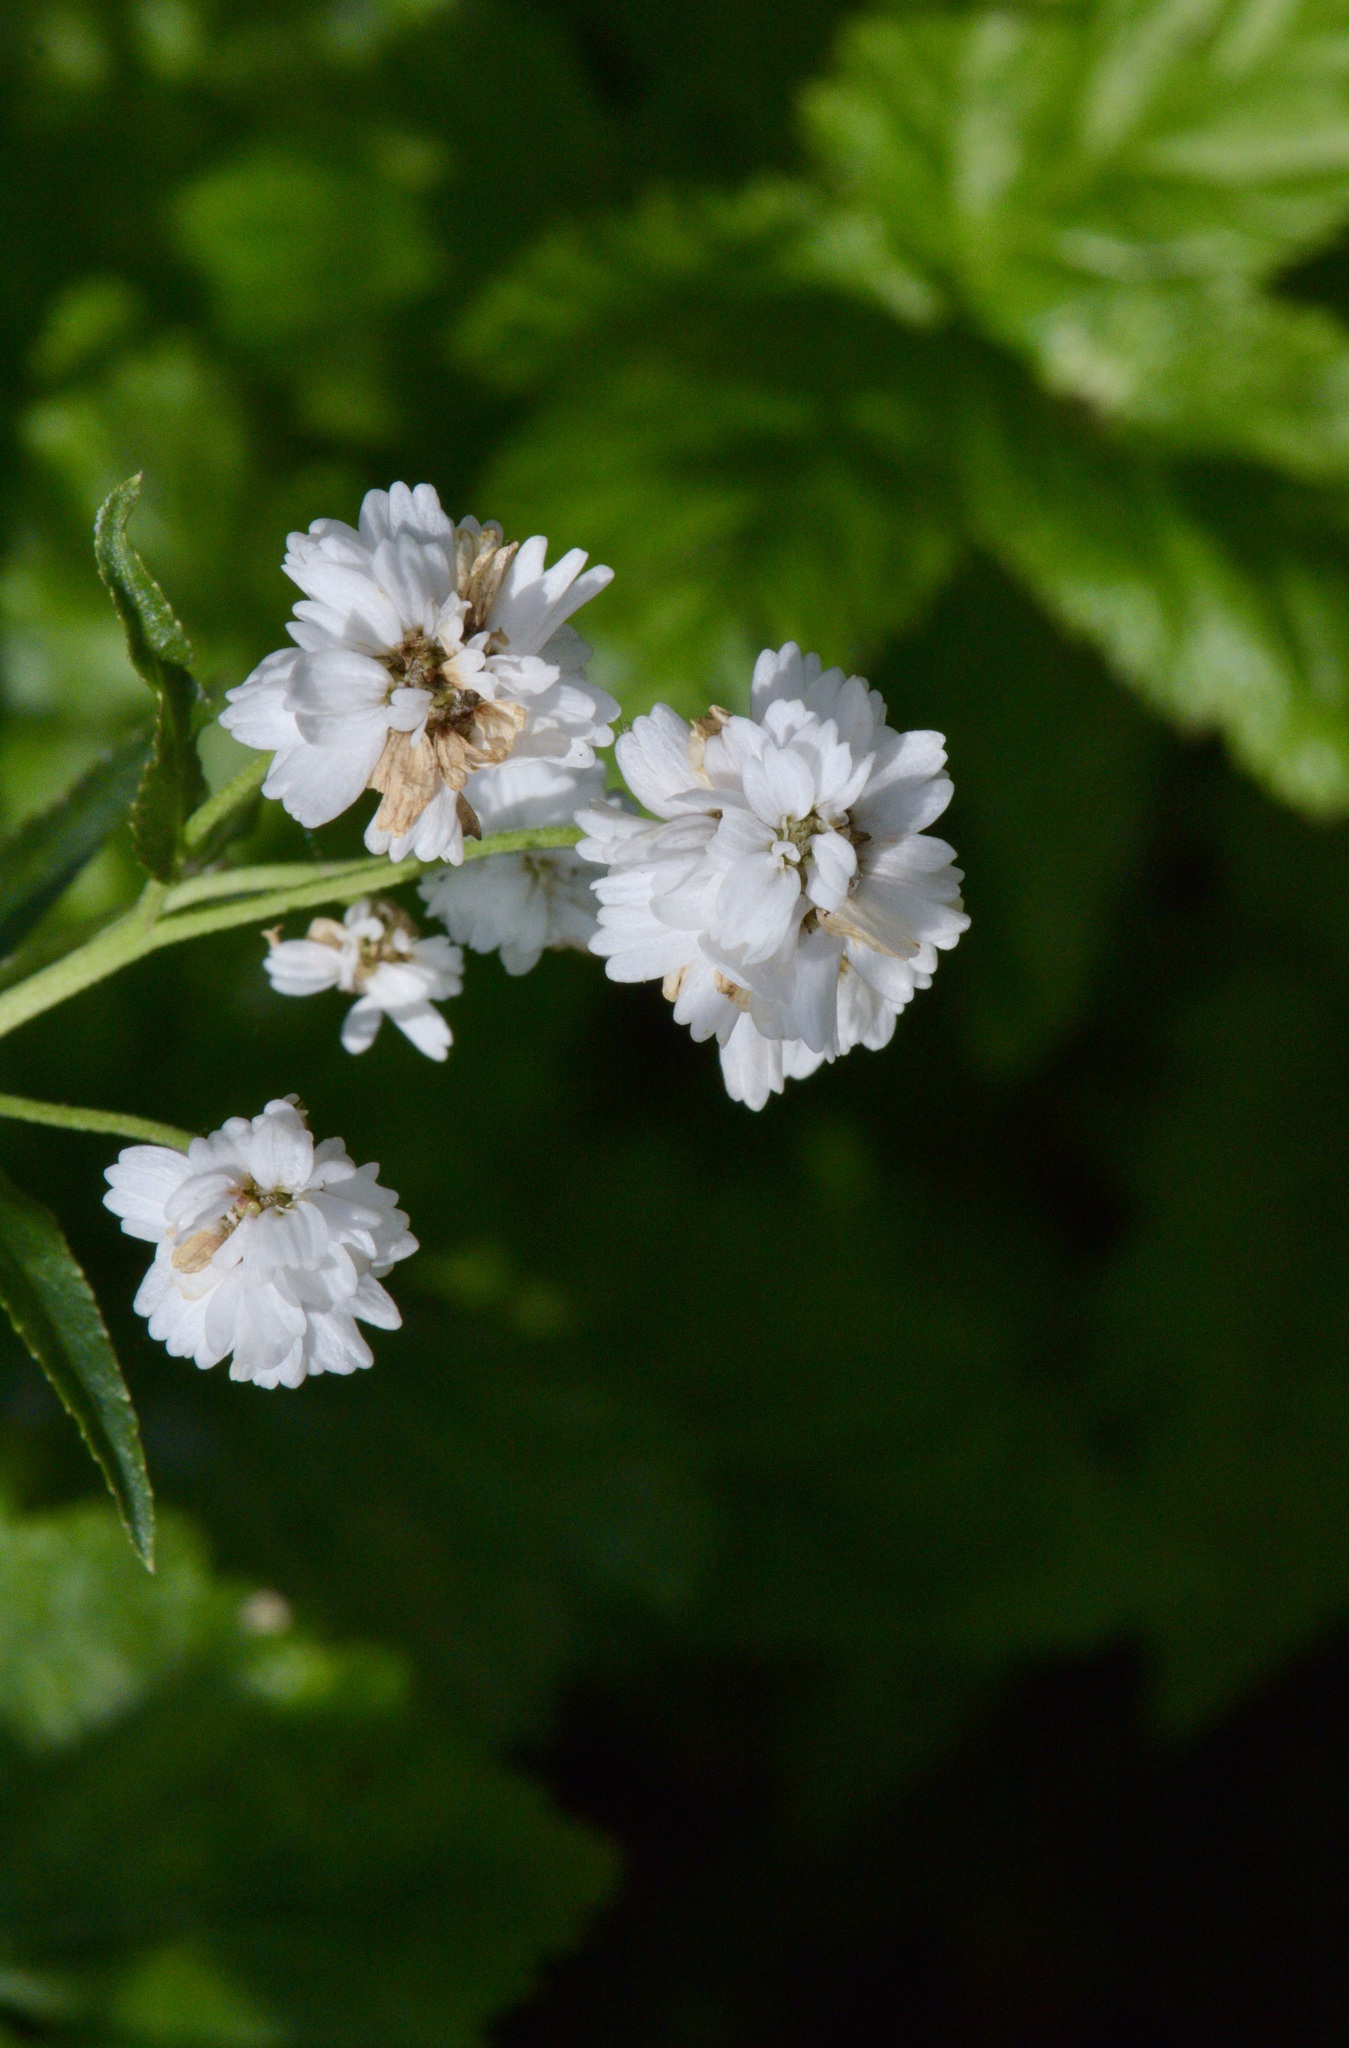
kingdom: Plantae
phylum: Tracheophyta
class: Magnoliopsida
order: Asterales
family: Asteraceae
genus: Achillea
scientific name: Achillea ptarmica
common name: Sneezeweed
